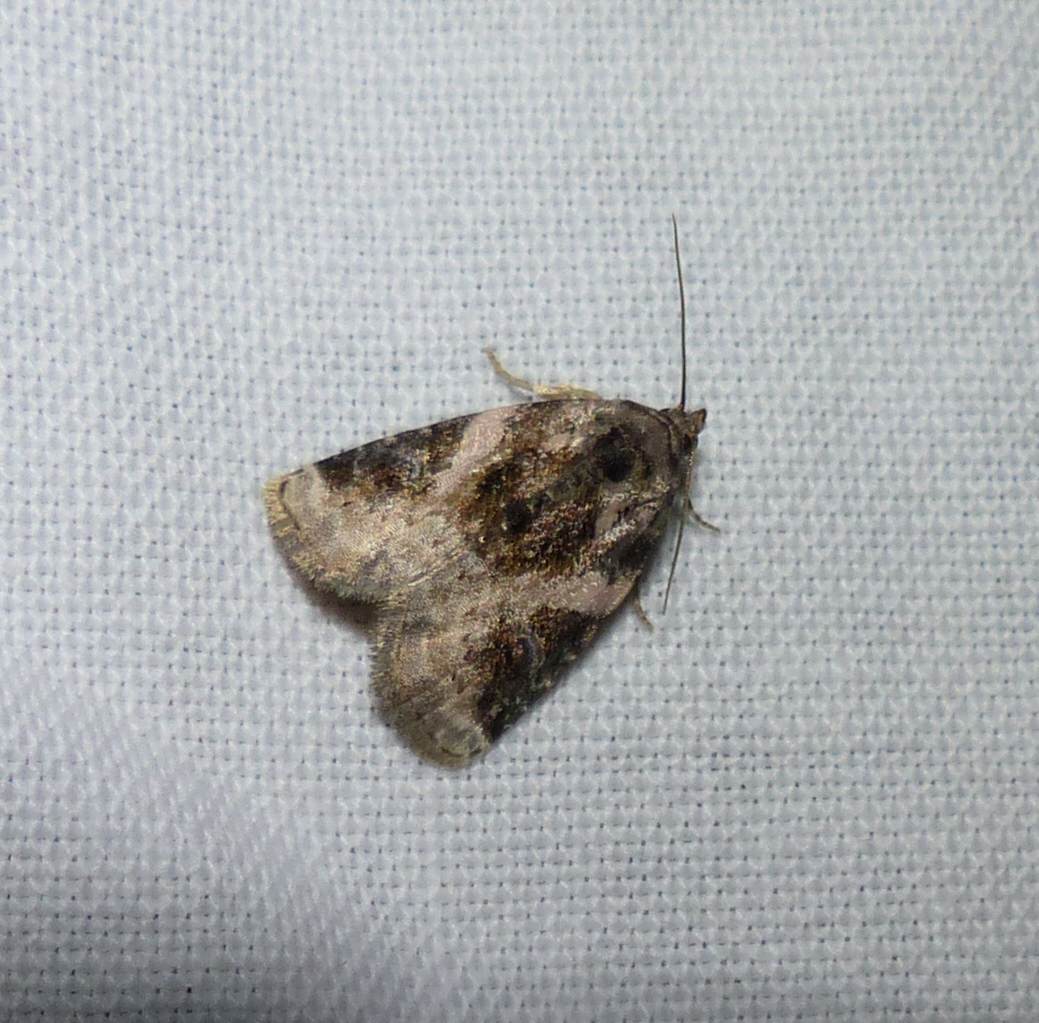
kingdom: Animalia
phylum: Arthropoda
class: Insecta
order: Lepidoptera
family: Noctuidae
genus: Pseudeustrotia
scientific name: Pseudeustrotia carneola
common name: Pink-barred lithacodia moth
